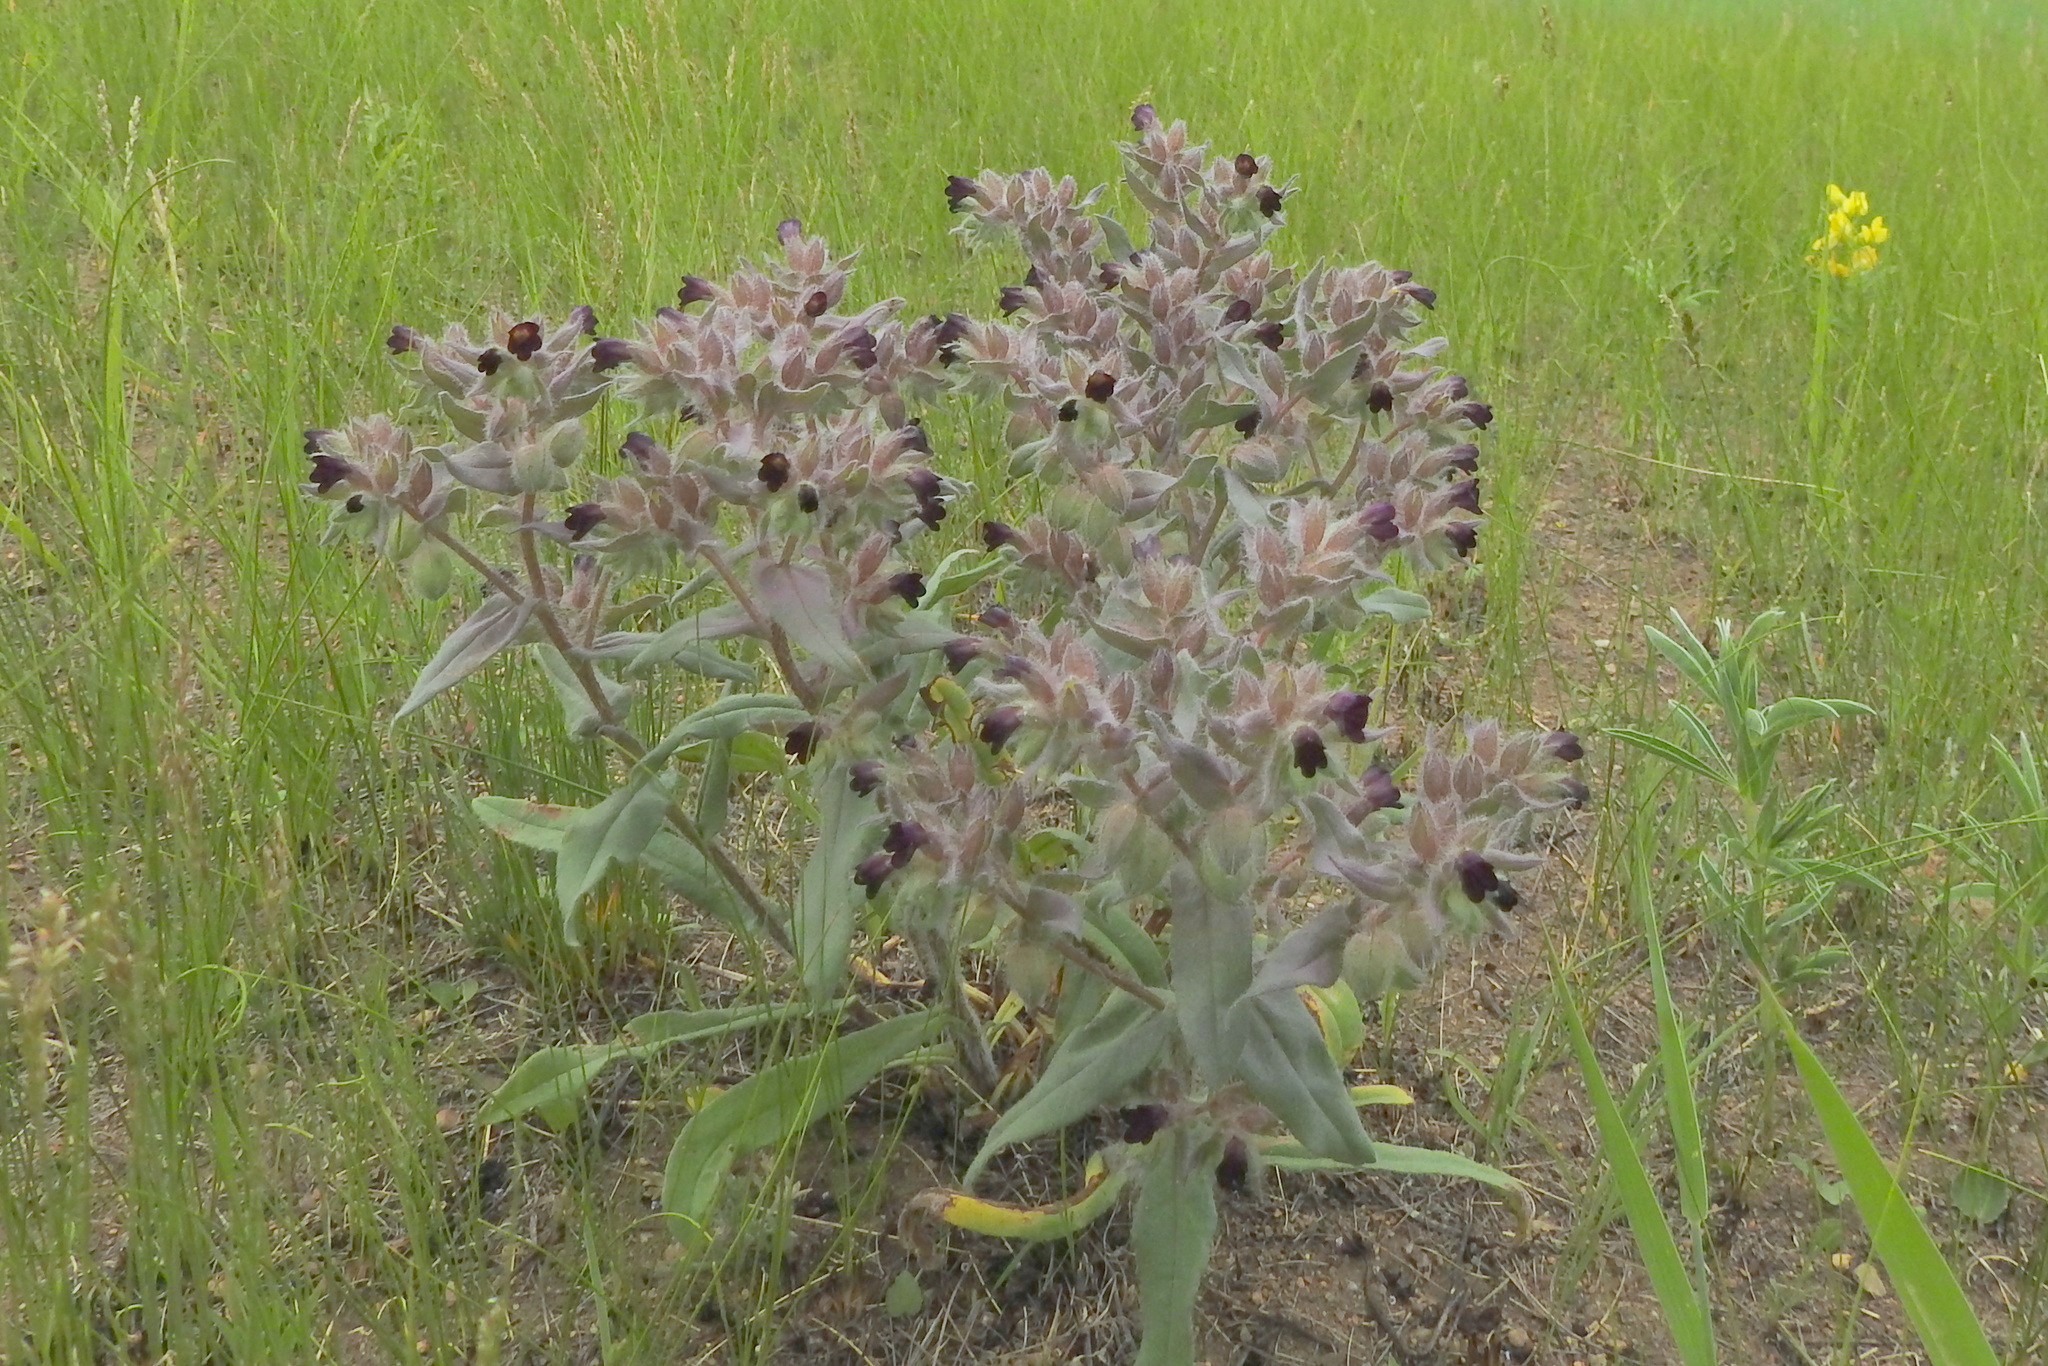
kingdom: Plantae
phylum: Tracheophyta
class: Magnoliopsida
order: Boraginales
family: Boraginaceae
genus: Nonea
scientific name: Nonea pulla
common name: Brown nonea
